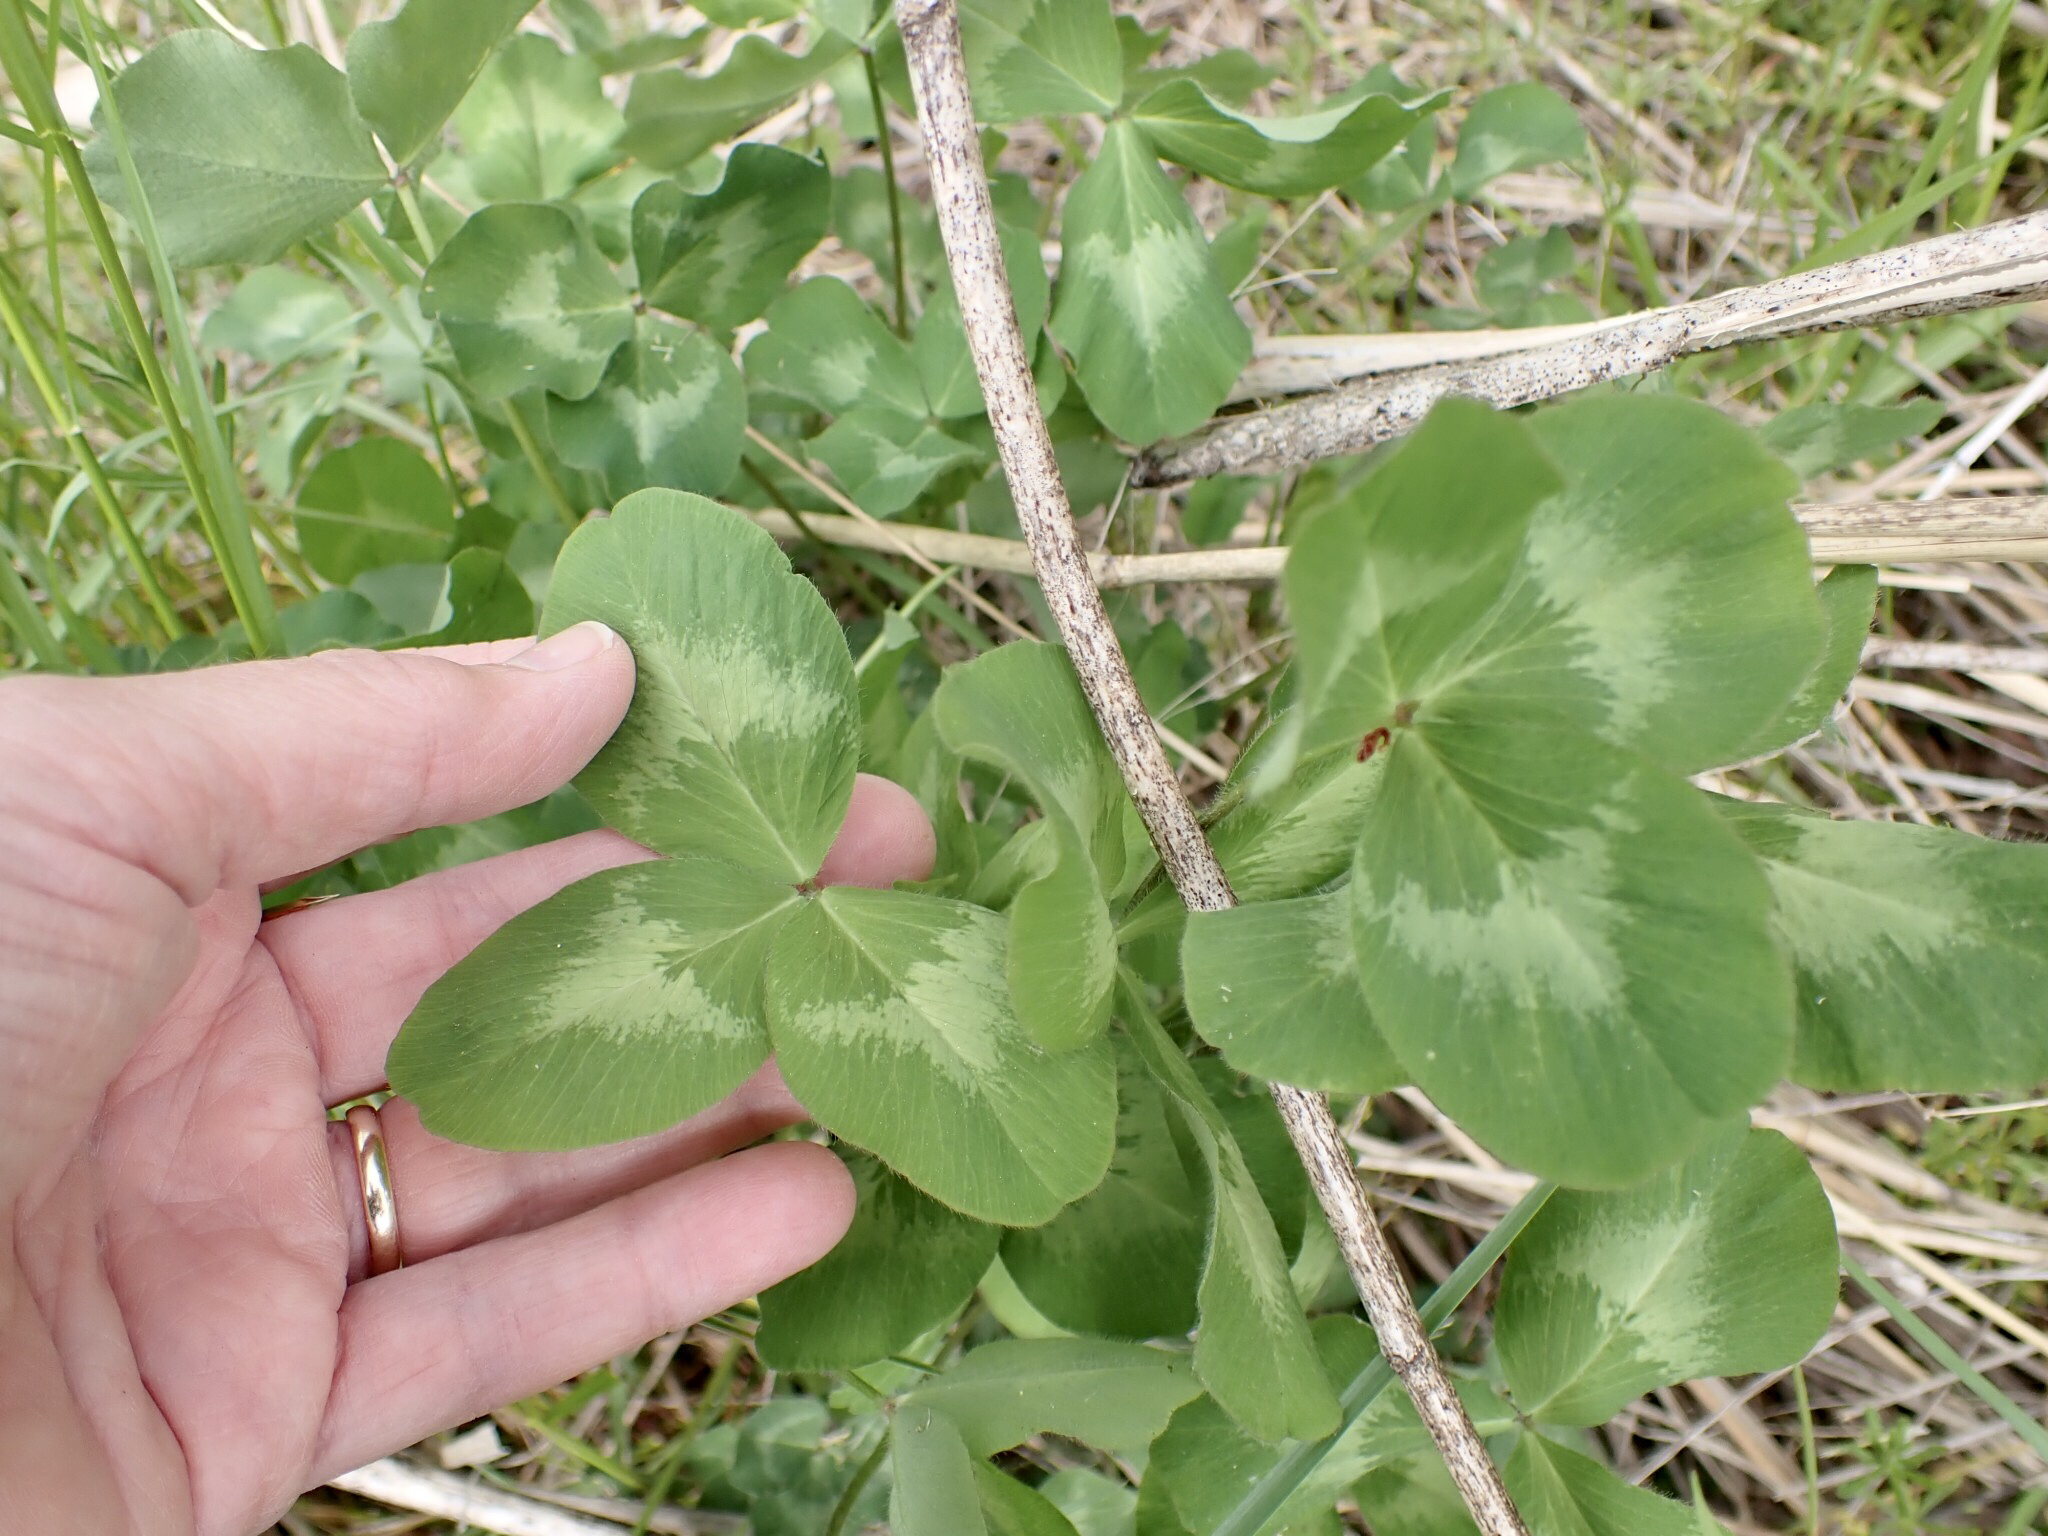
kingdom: Plantae
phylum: Tracheophyta
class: Magnoliopsida
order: Fabales
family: Fabaceae
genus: Trifolium
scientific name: Trifolium pratense
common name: Red clover
